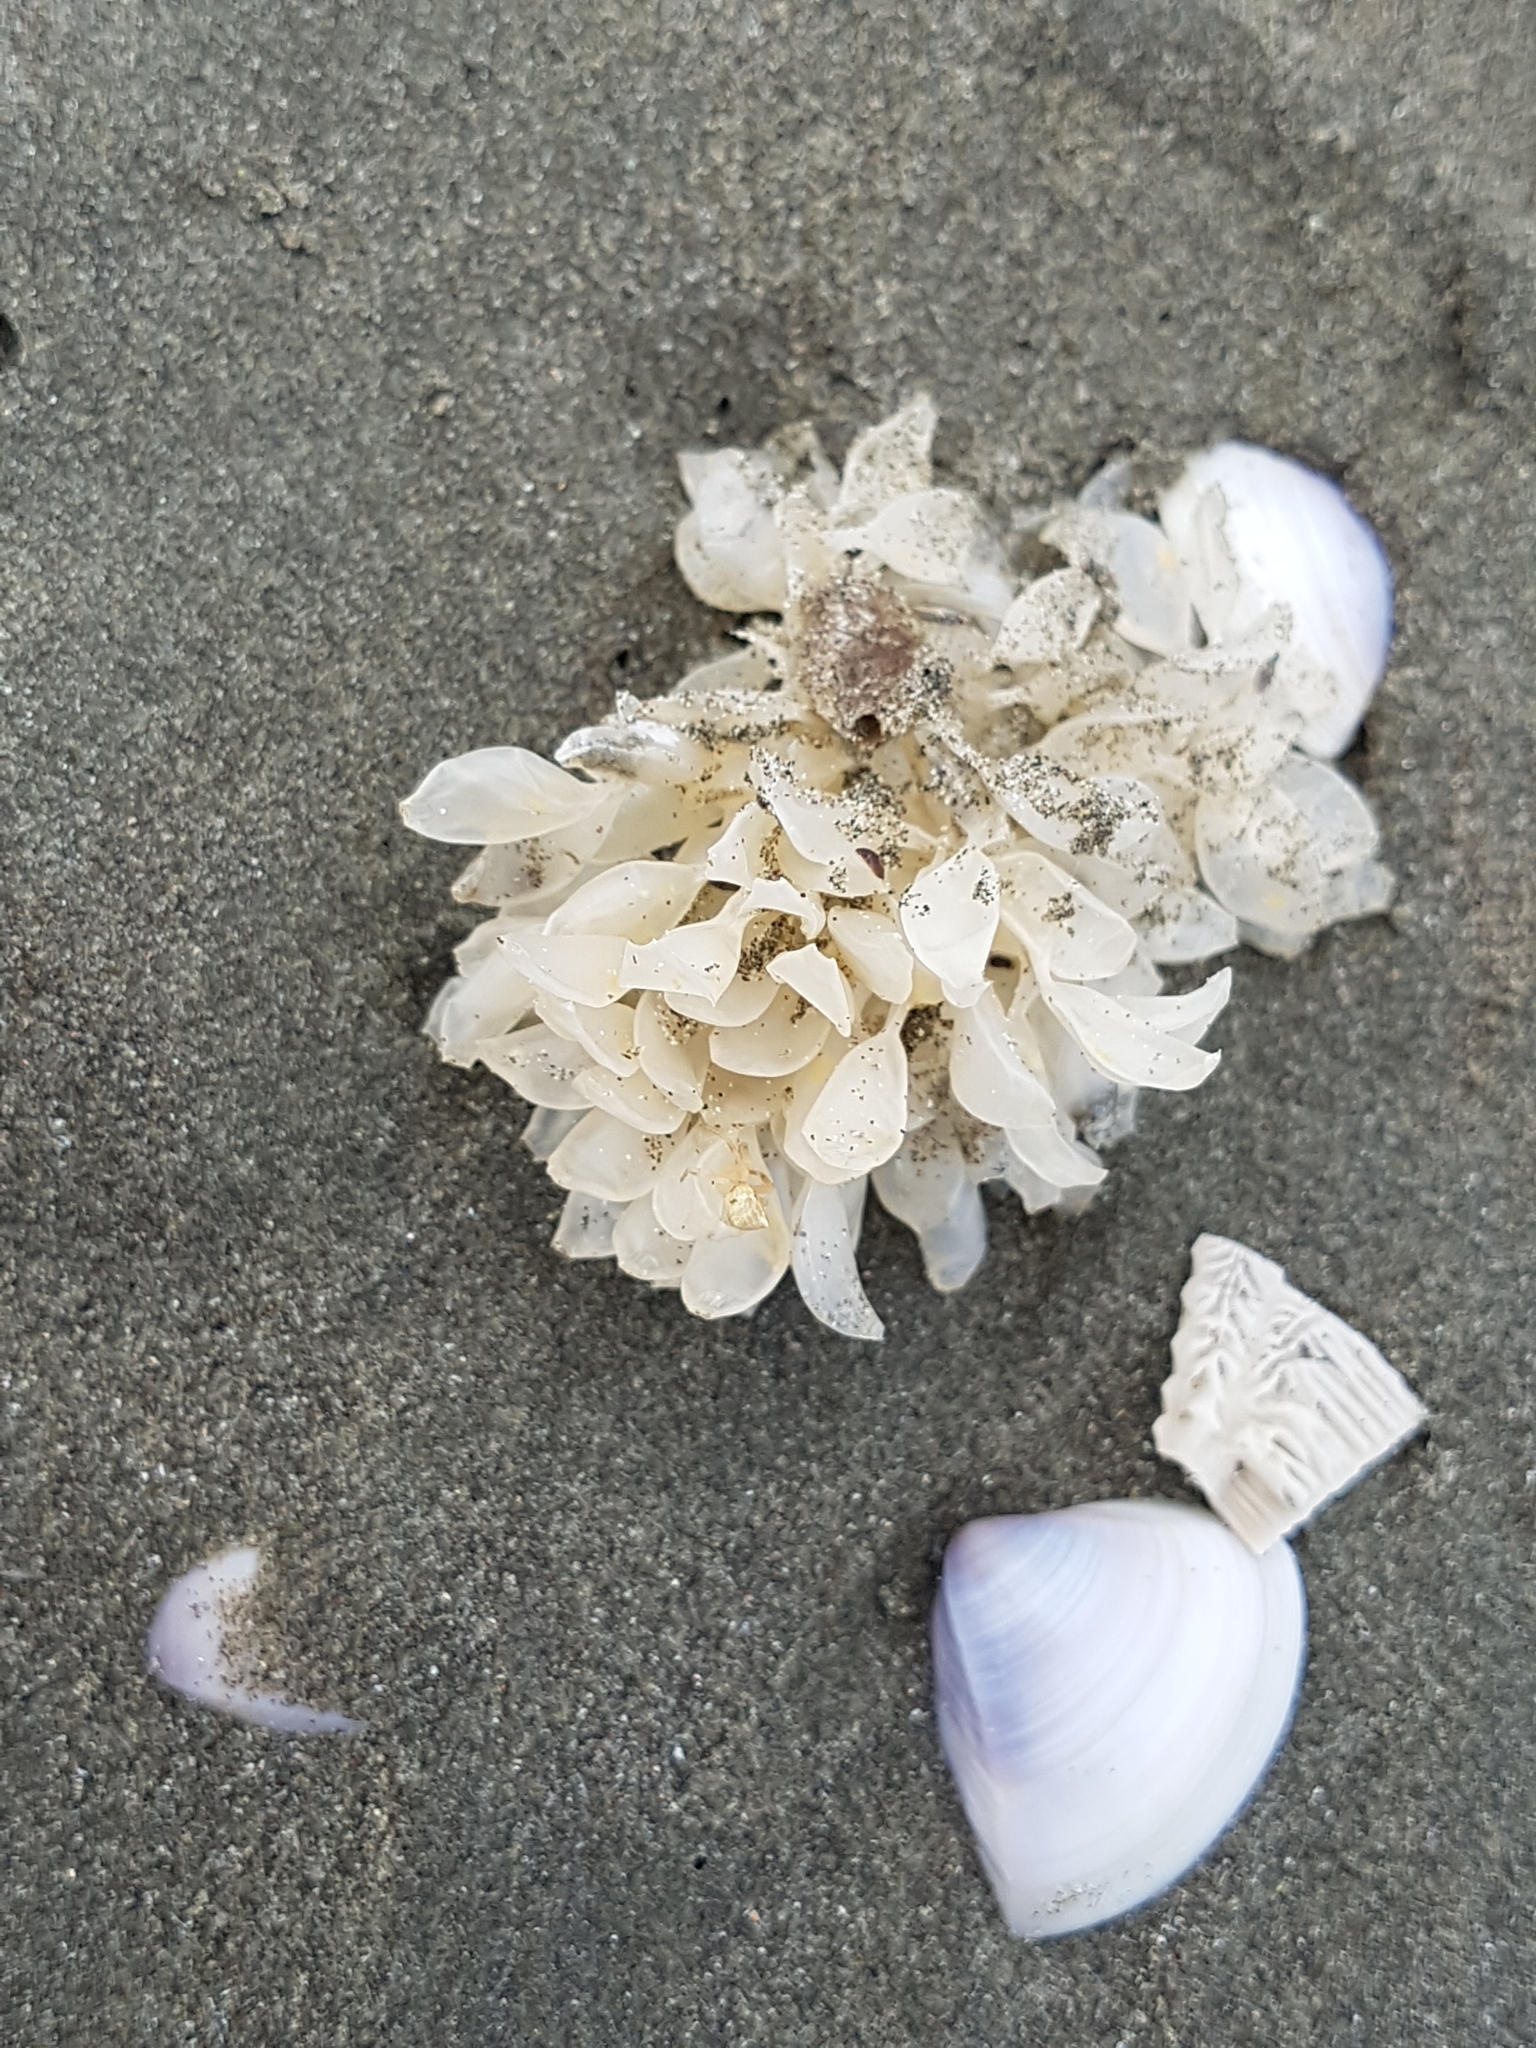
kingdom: Animalia
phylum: Mollusca
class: Gastropoda
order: Neogastropoda
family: Cominellidae
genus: Cominella
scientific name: Cominella adspersa
